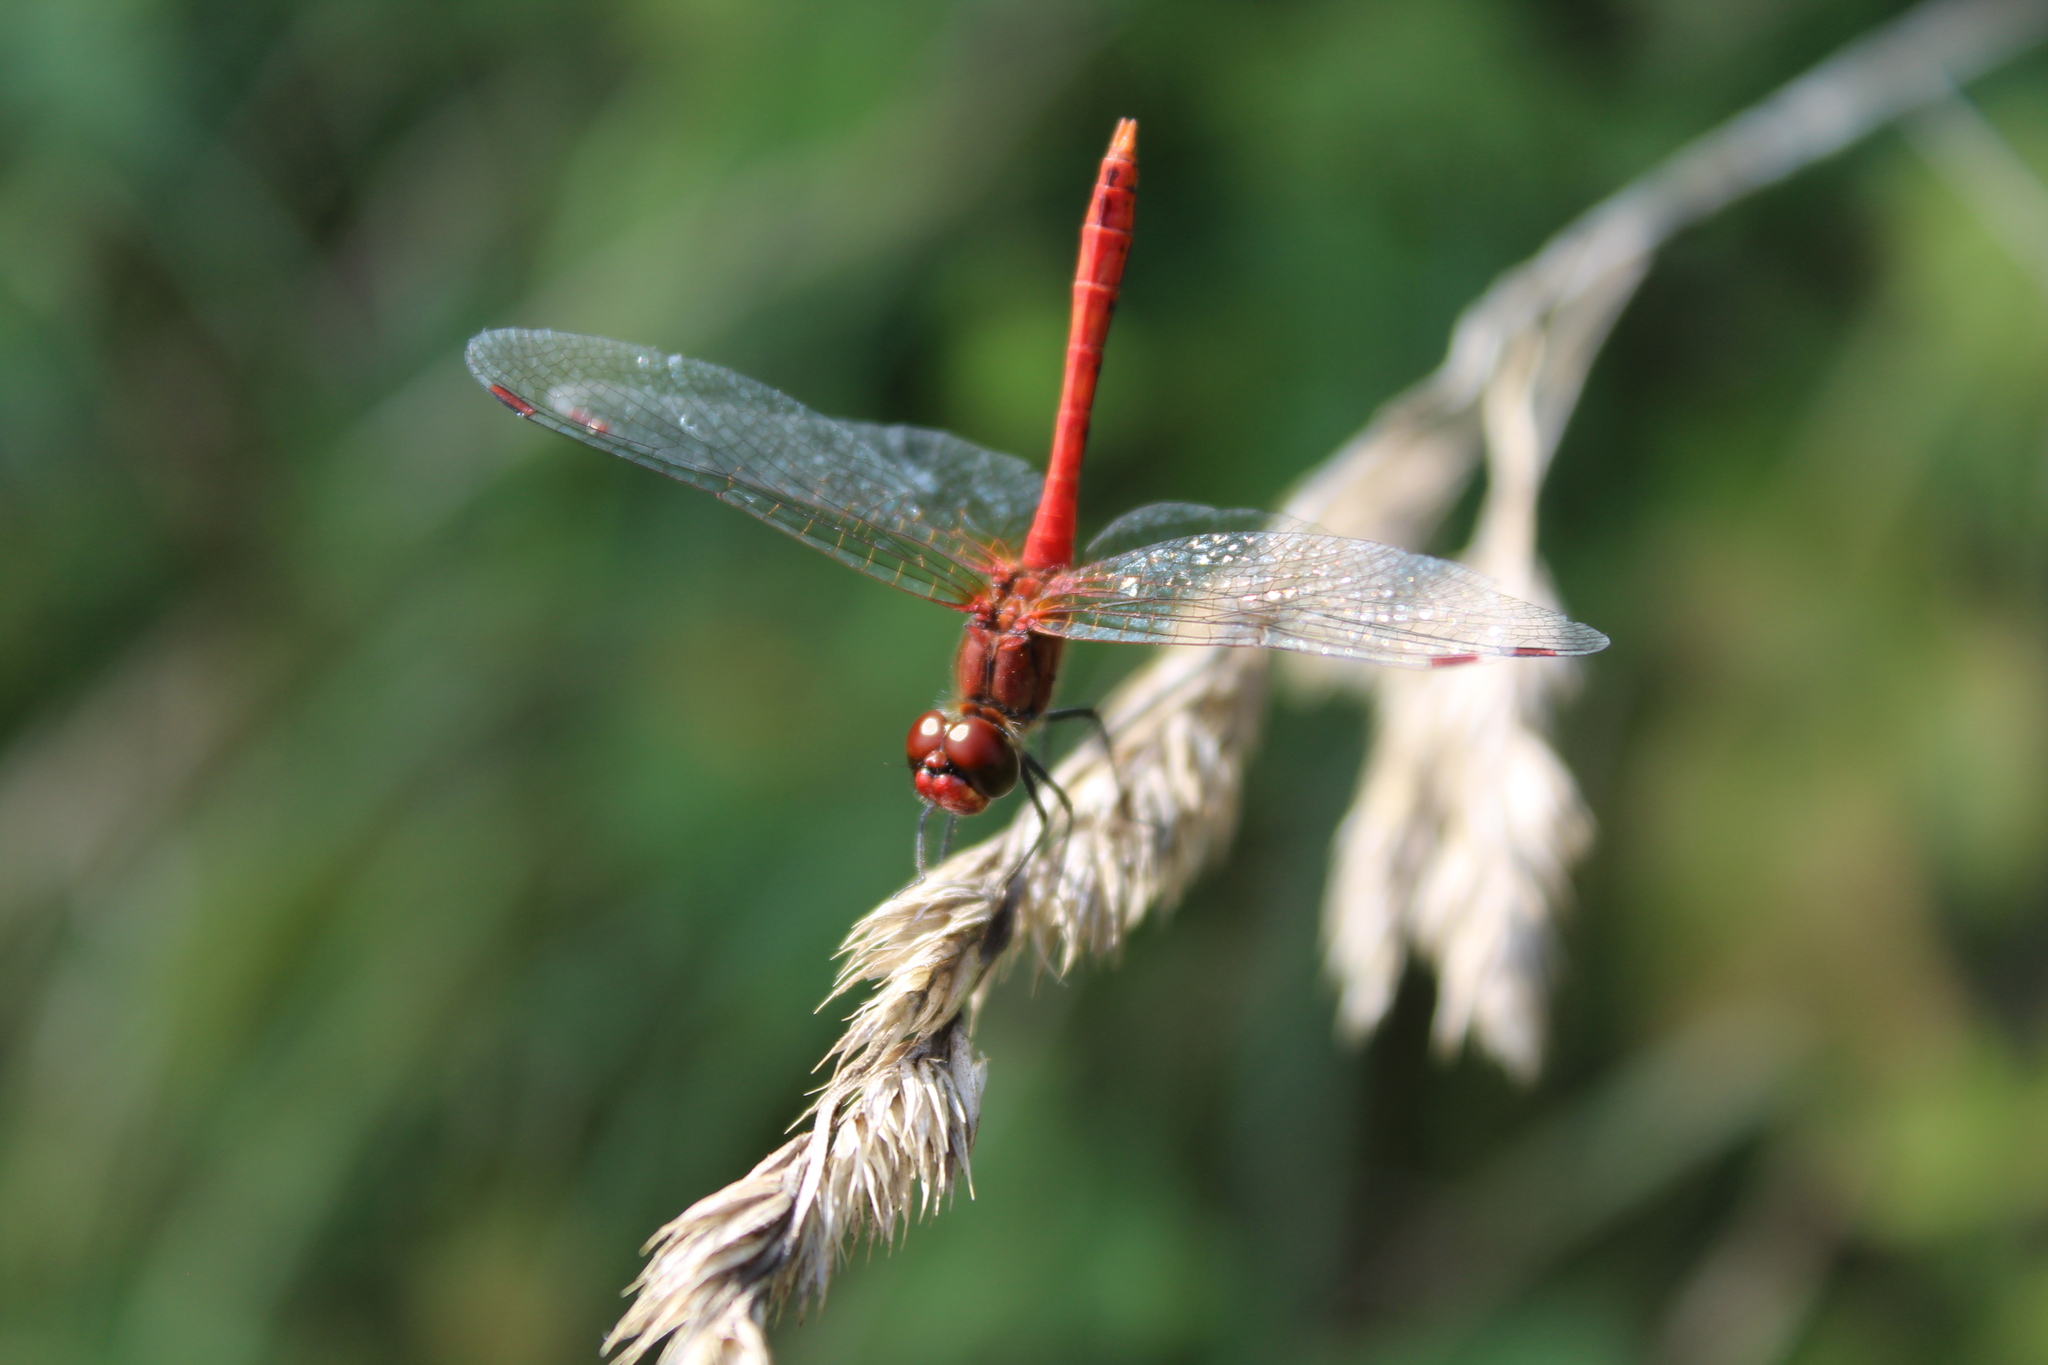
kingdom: Animalia
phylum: Arthropoda
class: Insecta
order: Odonata
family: Libellulidae
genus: Sympetrum
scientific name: Sympetrum sanguineum
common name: Ruddy darter
